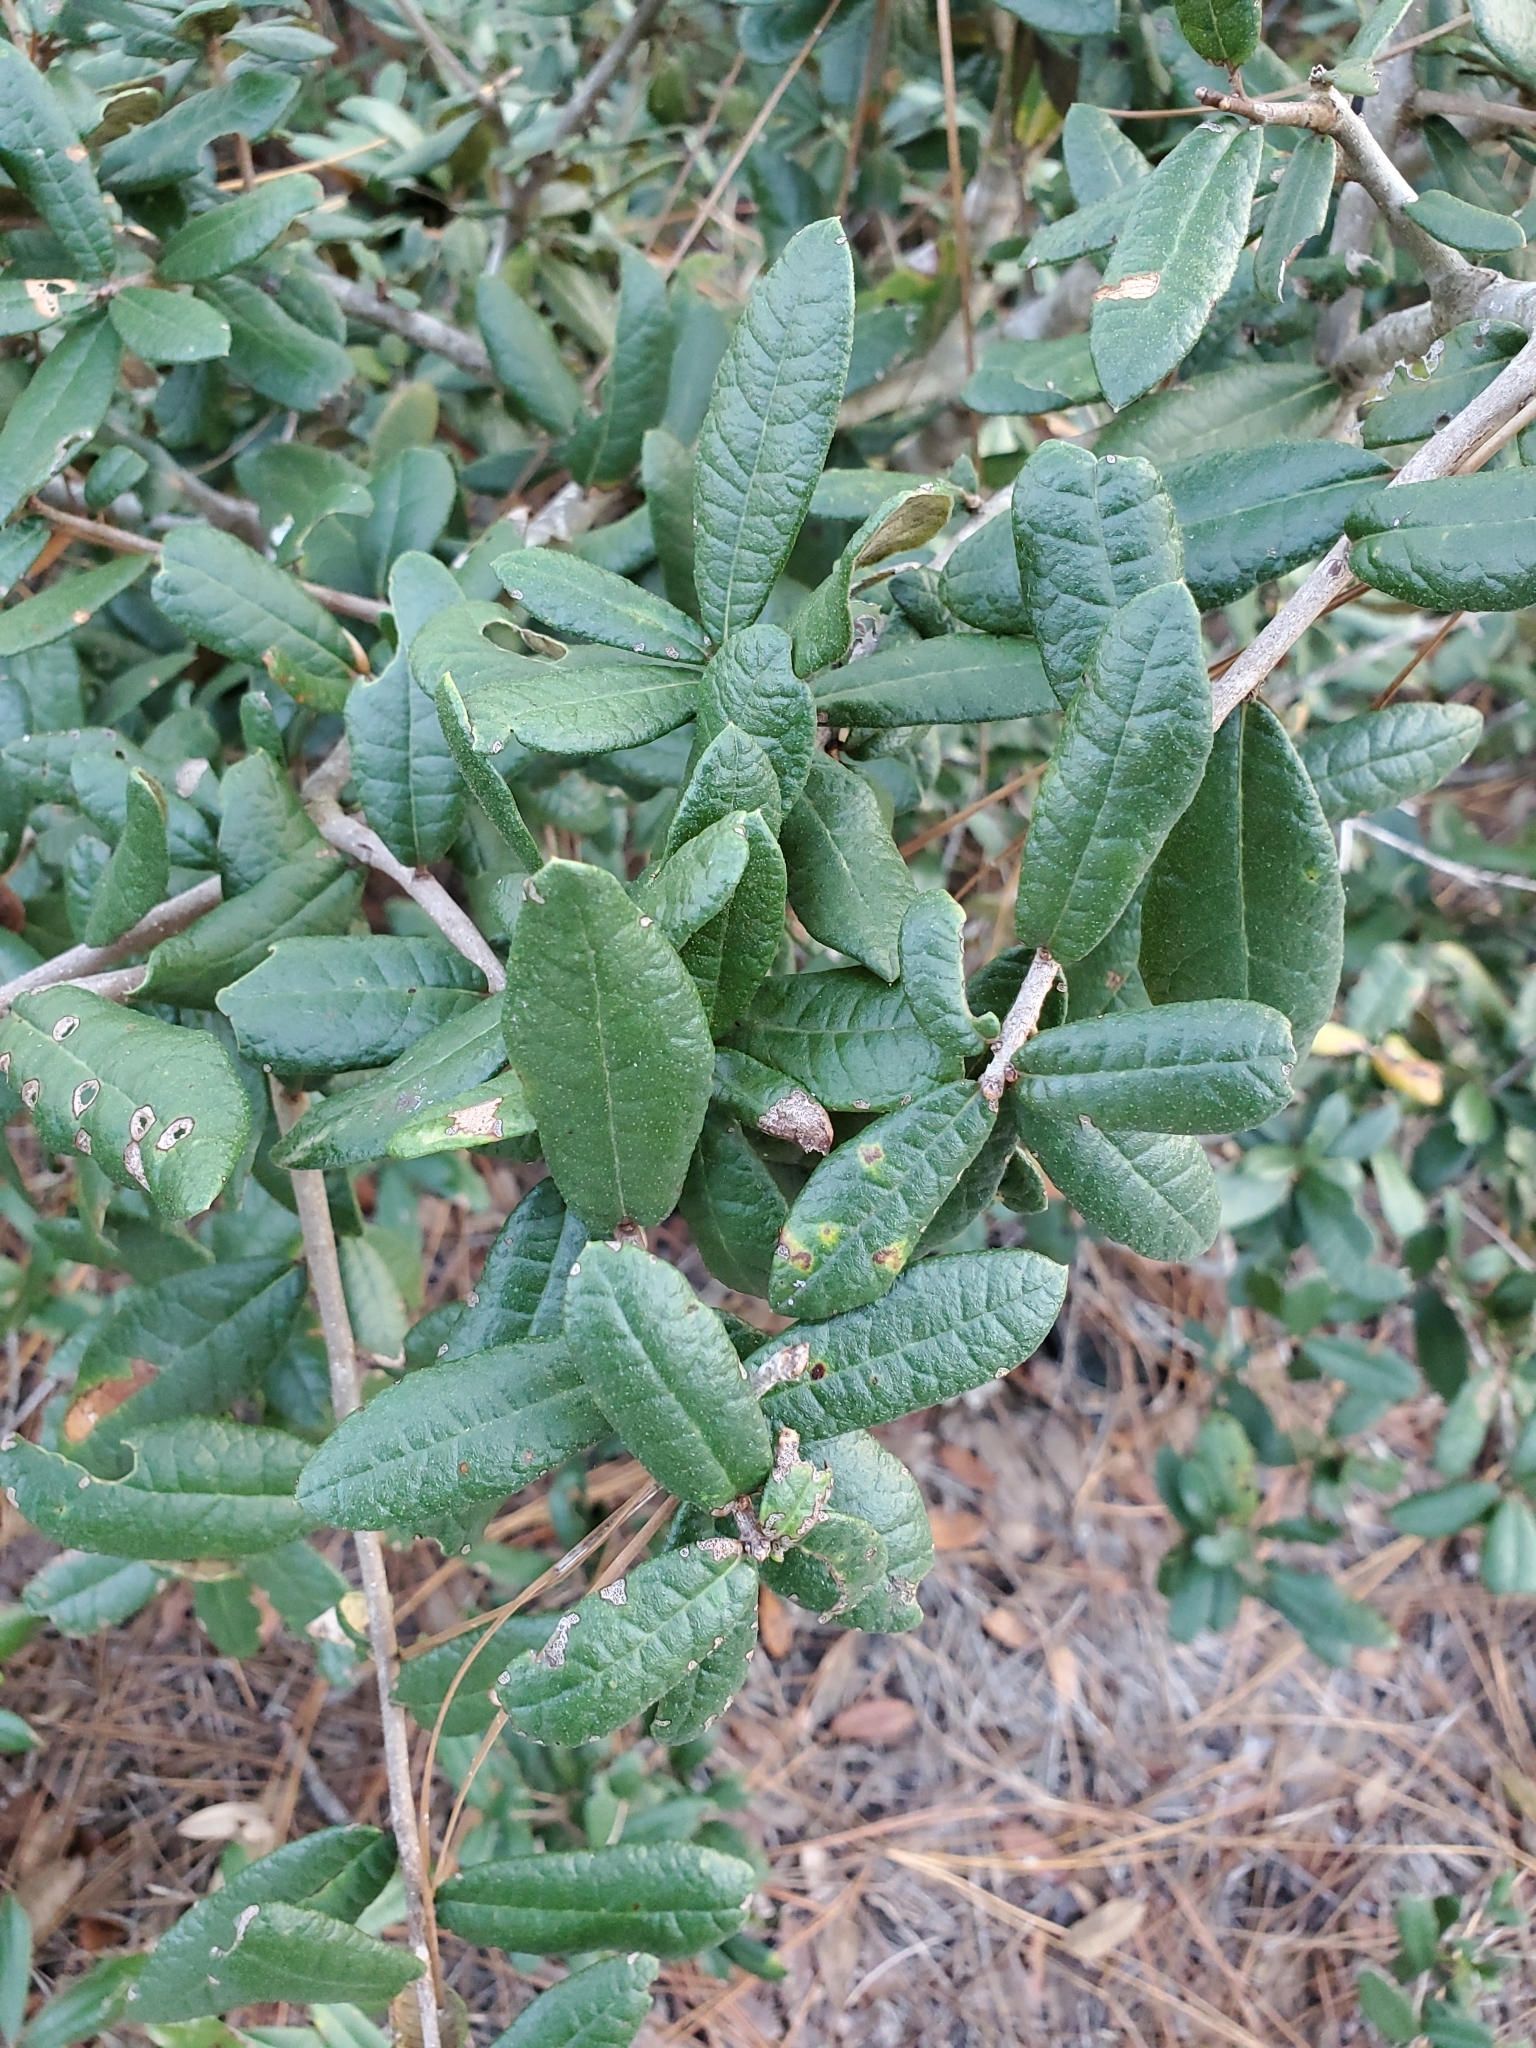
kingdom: Plantae
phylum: Tracheophyta
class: Magnoliopsida
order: Fagales
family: Fagaceae
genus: Quercus
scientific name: Quercus geminata
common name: Sand live oak
